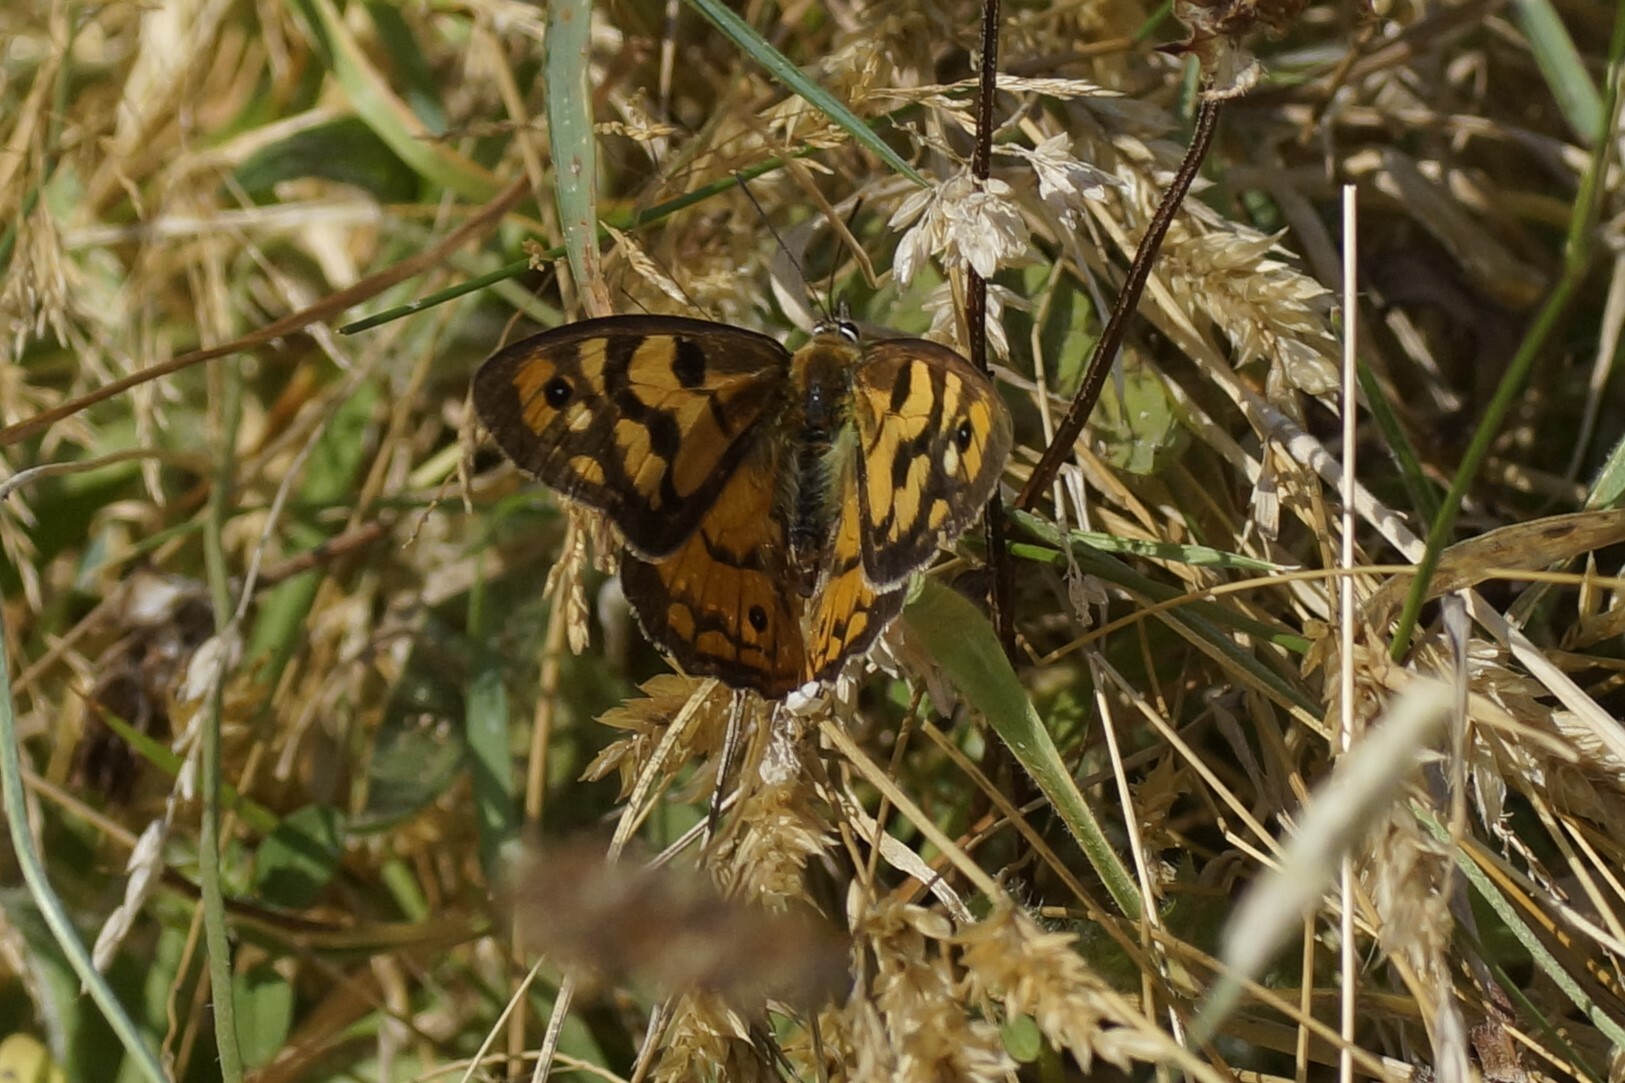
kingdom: Animalia
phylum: Arthropoda
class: Insecta
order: Lepidoptera
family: Nymphalidae
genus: Heteronympha
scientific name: Heteronympha penelope
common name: Shouldered brown
